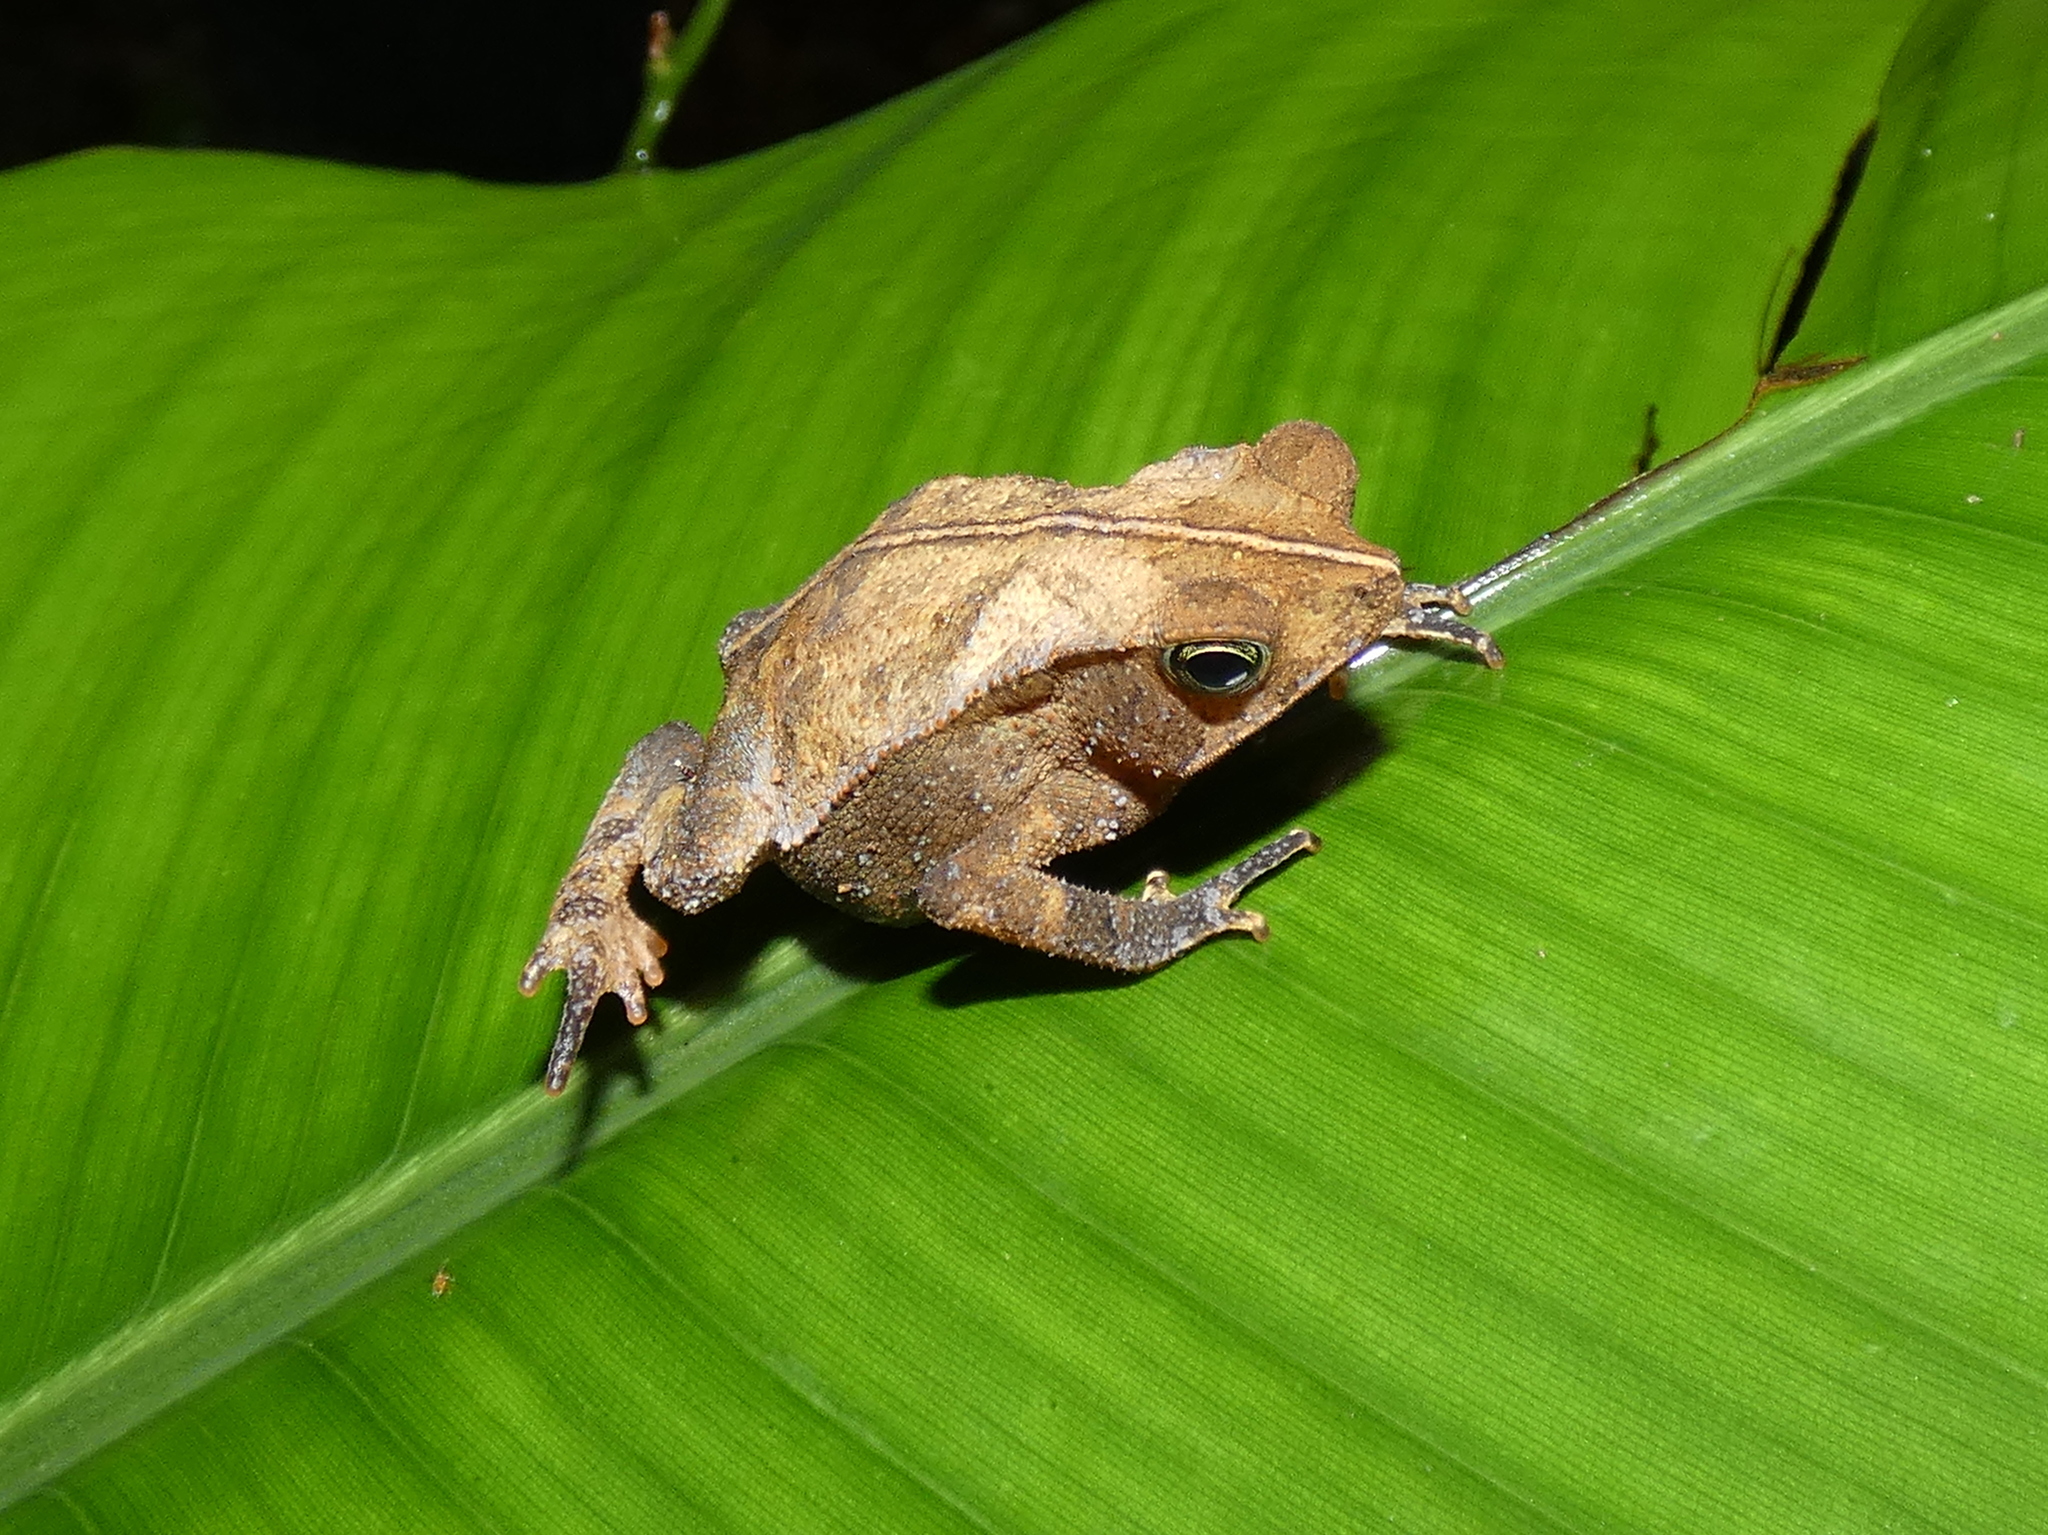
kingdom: Animalia
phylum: Chordata
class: Amphibia
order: Anura
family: Bufonidae
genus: Rhinella
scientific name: Rhinella margaritifera
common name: Mitred toad
